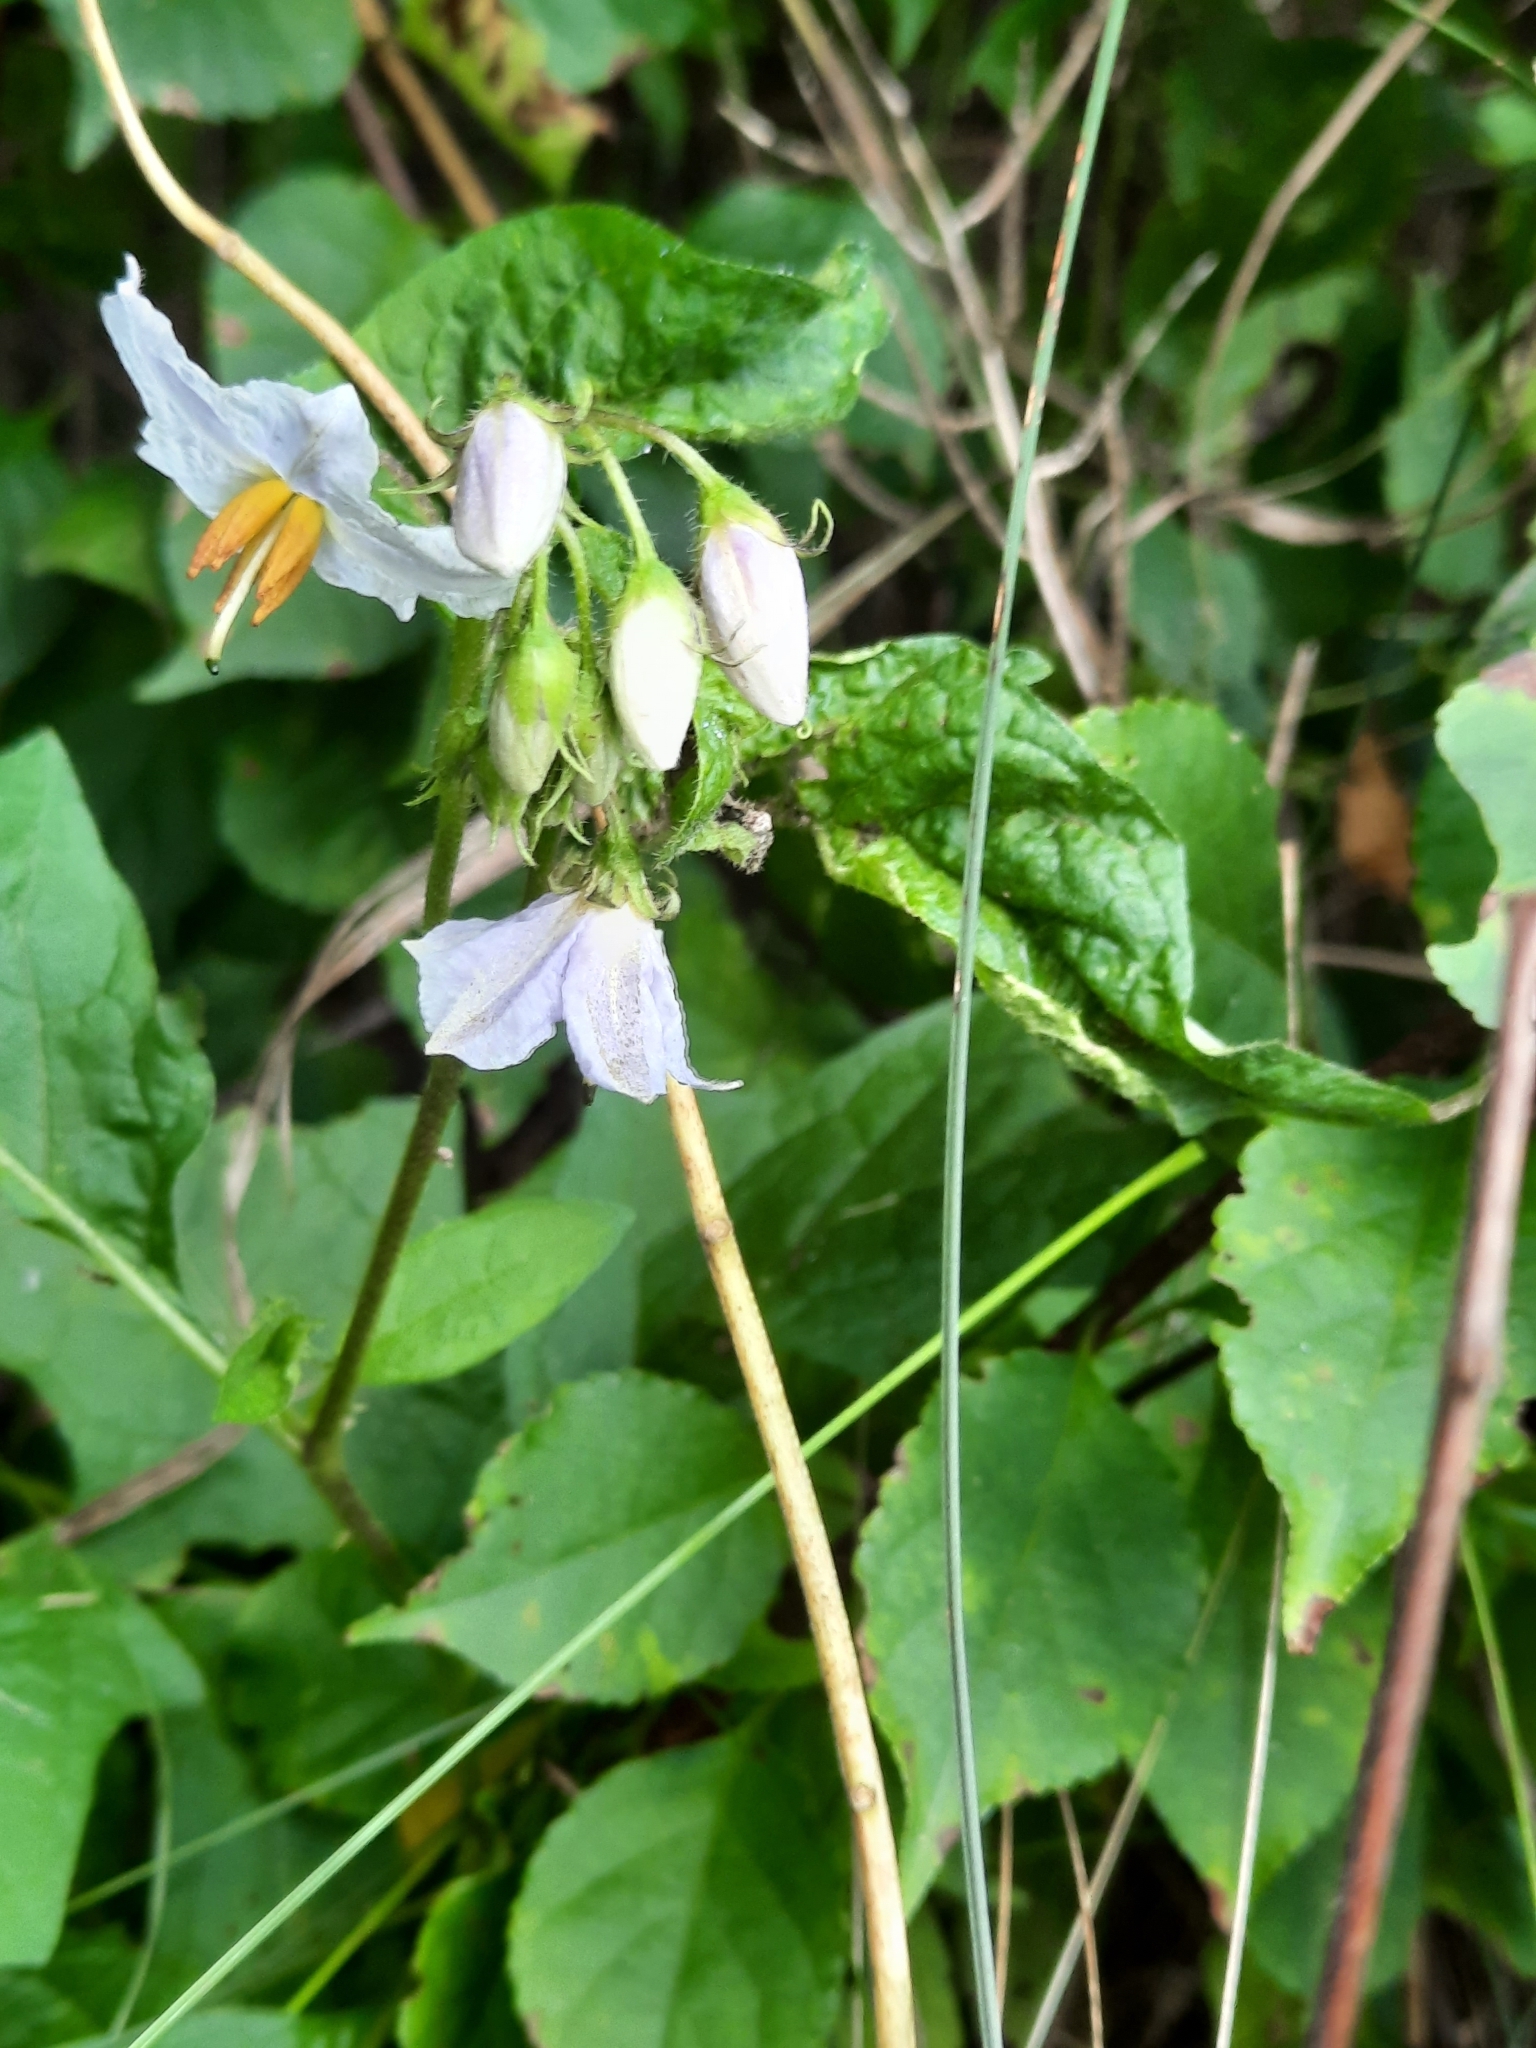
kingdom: Plantae
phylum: Tracheophyta
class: Magnoliopsida
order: Solanales
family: Solanaceae
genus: Solanum
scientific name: Solanum carolinense
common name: Horse-nettle
